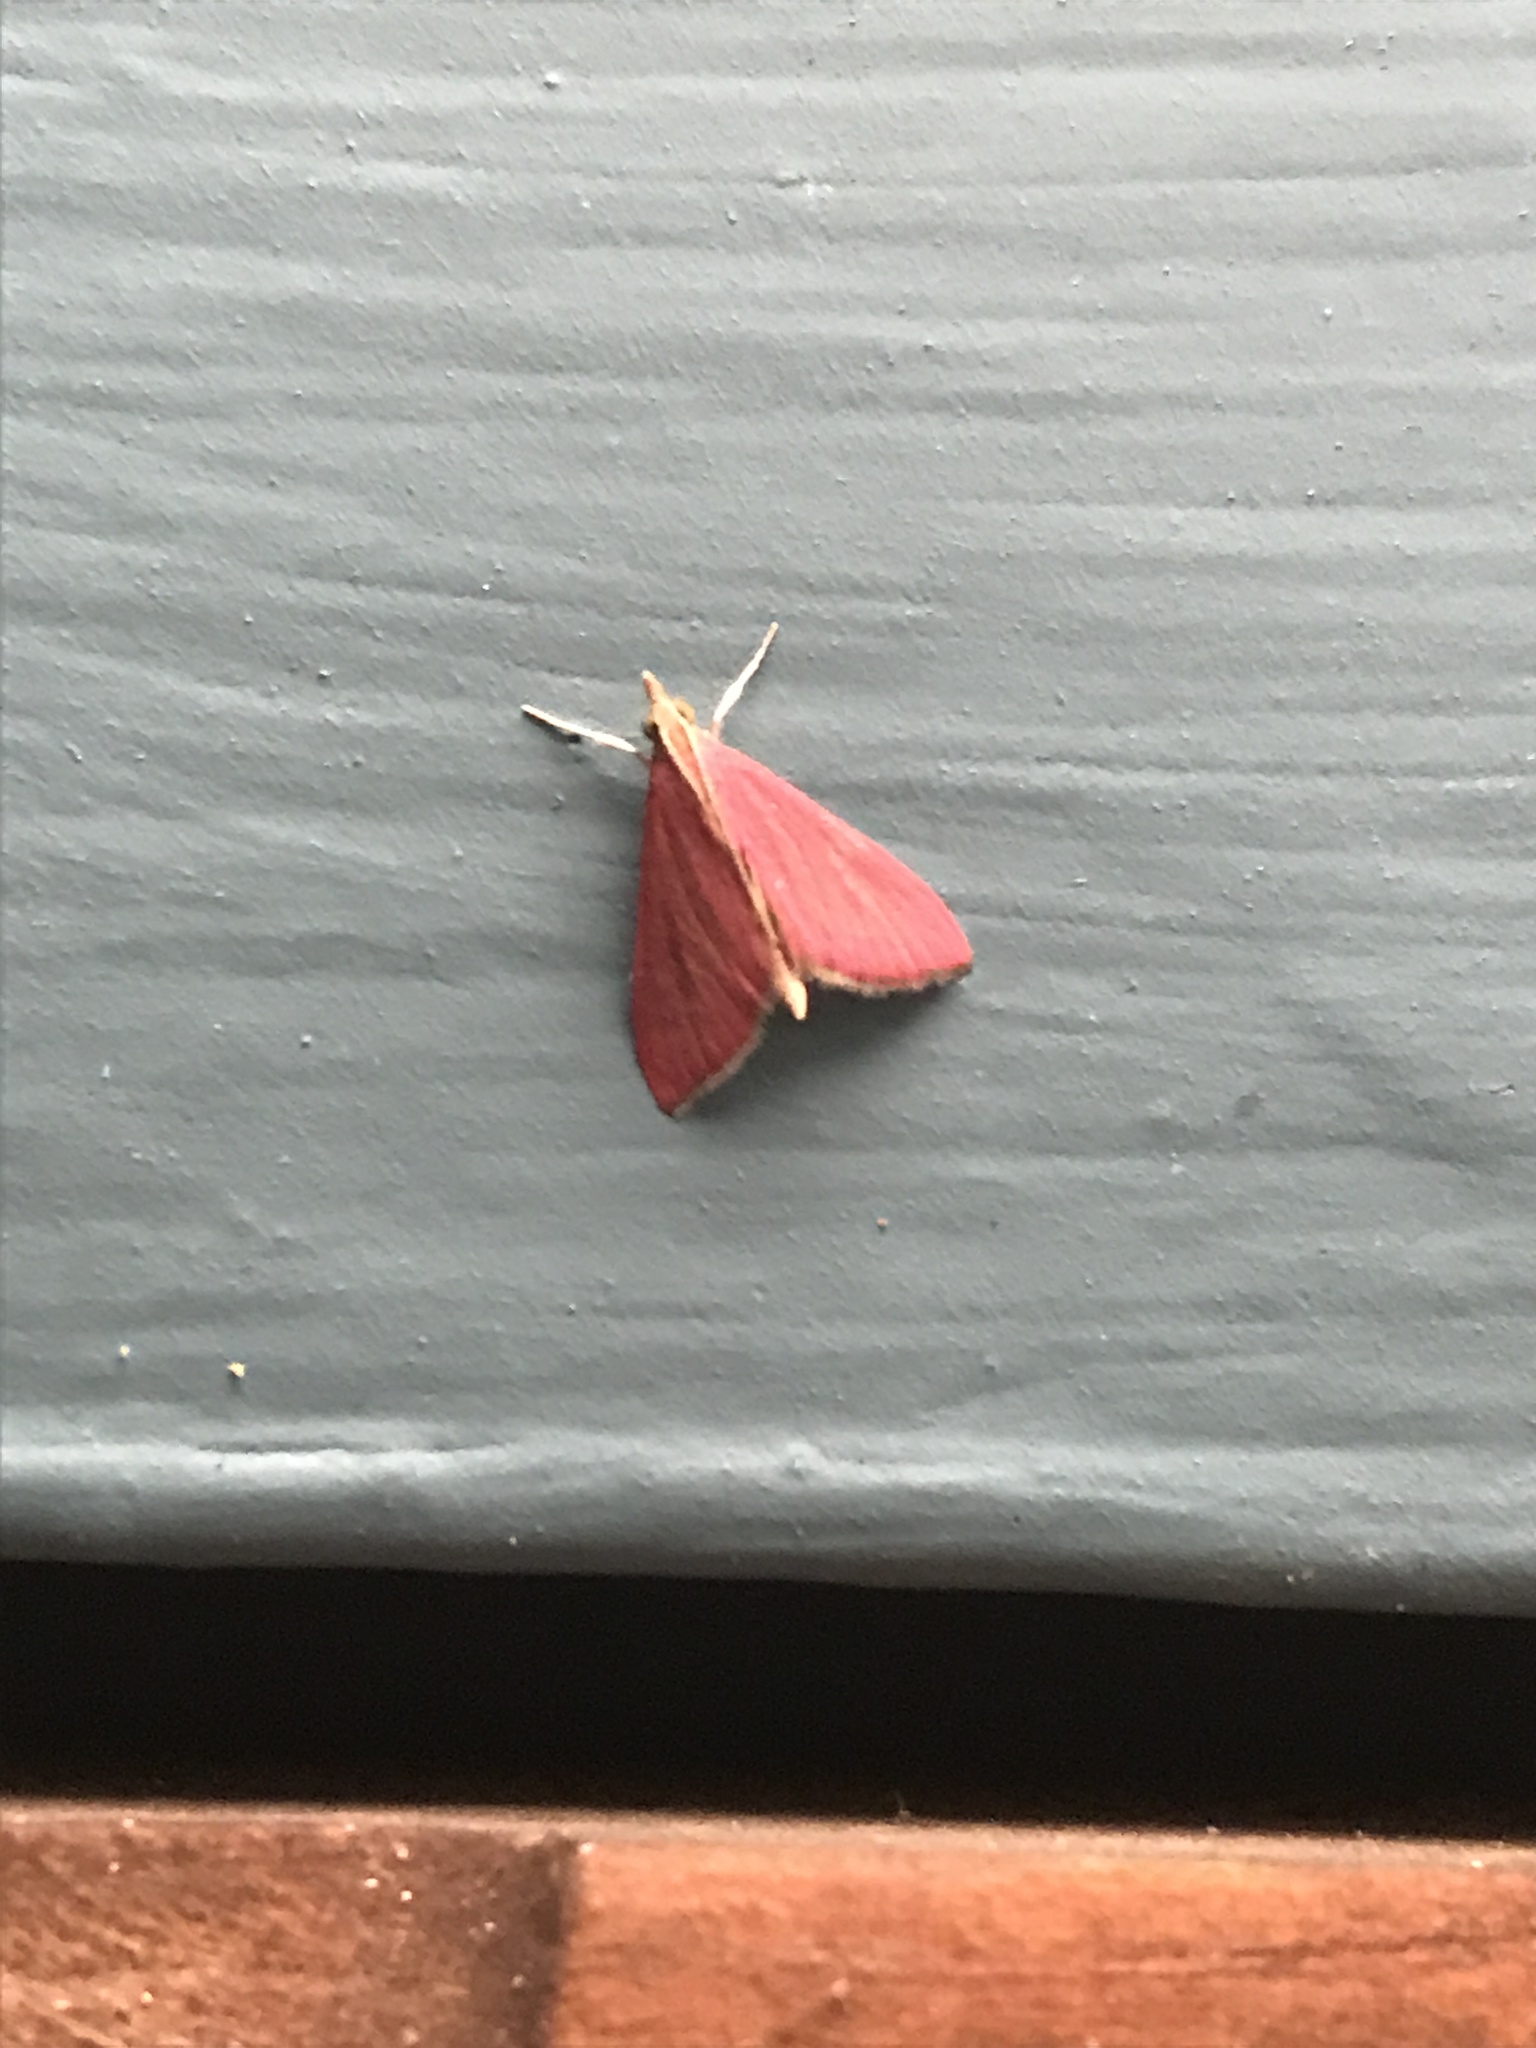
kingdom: Animalia
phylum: Arthropoda
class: Insecta
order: Lepidoptera
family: Crambidae
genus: Pyrausta
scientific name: Pyrausta inornatalis
